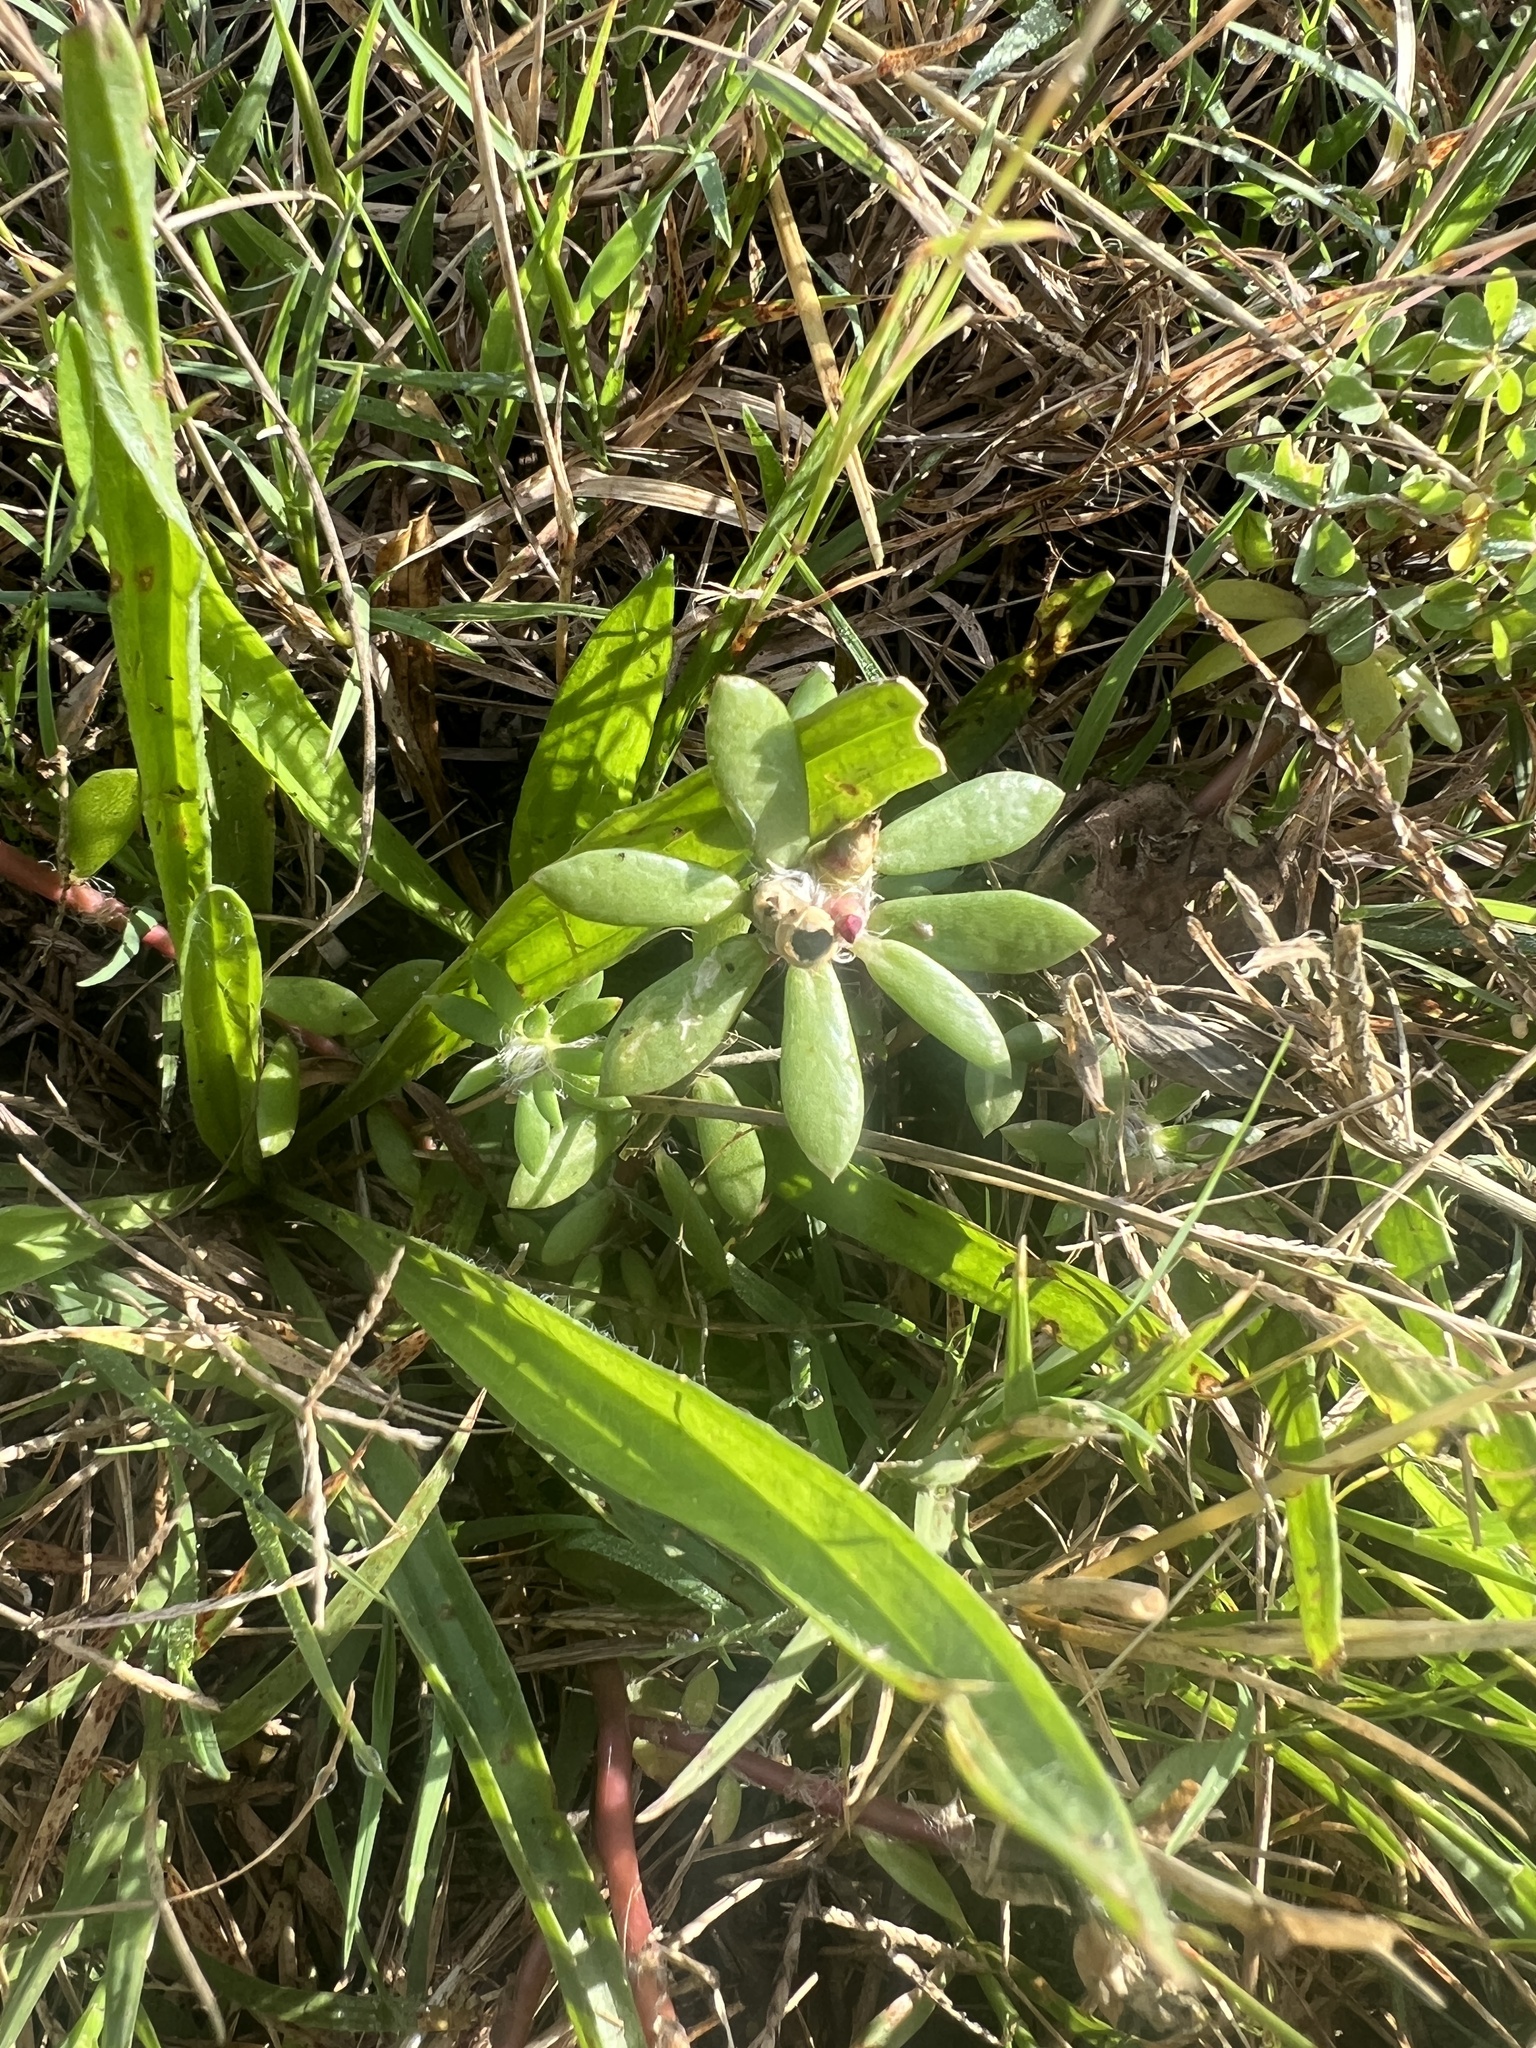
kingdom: Plantae
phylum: Tracheophyta
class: Magnoliopsida
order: Caryophyllales
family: Portulacaceae
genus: Portulaca
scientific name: Portulaca amilis
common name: Paraguayan purslane
